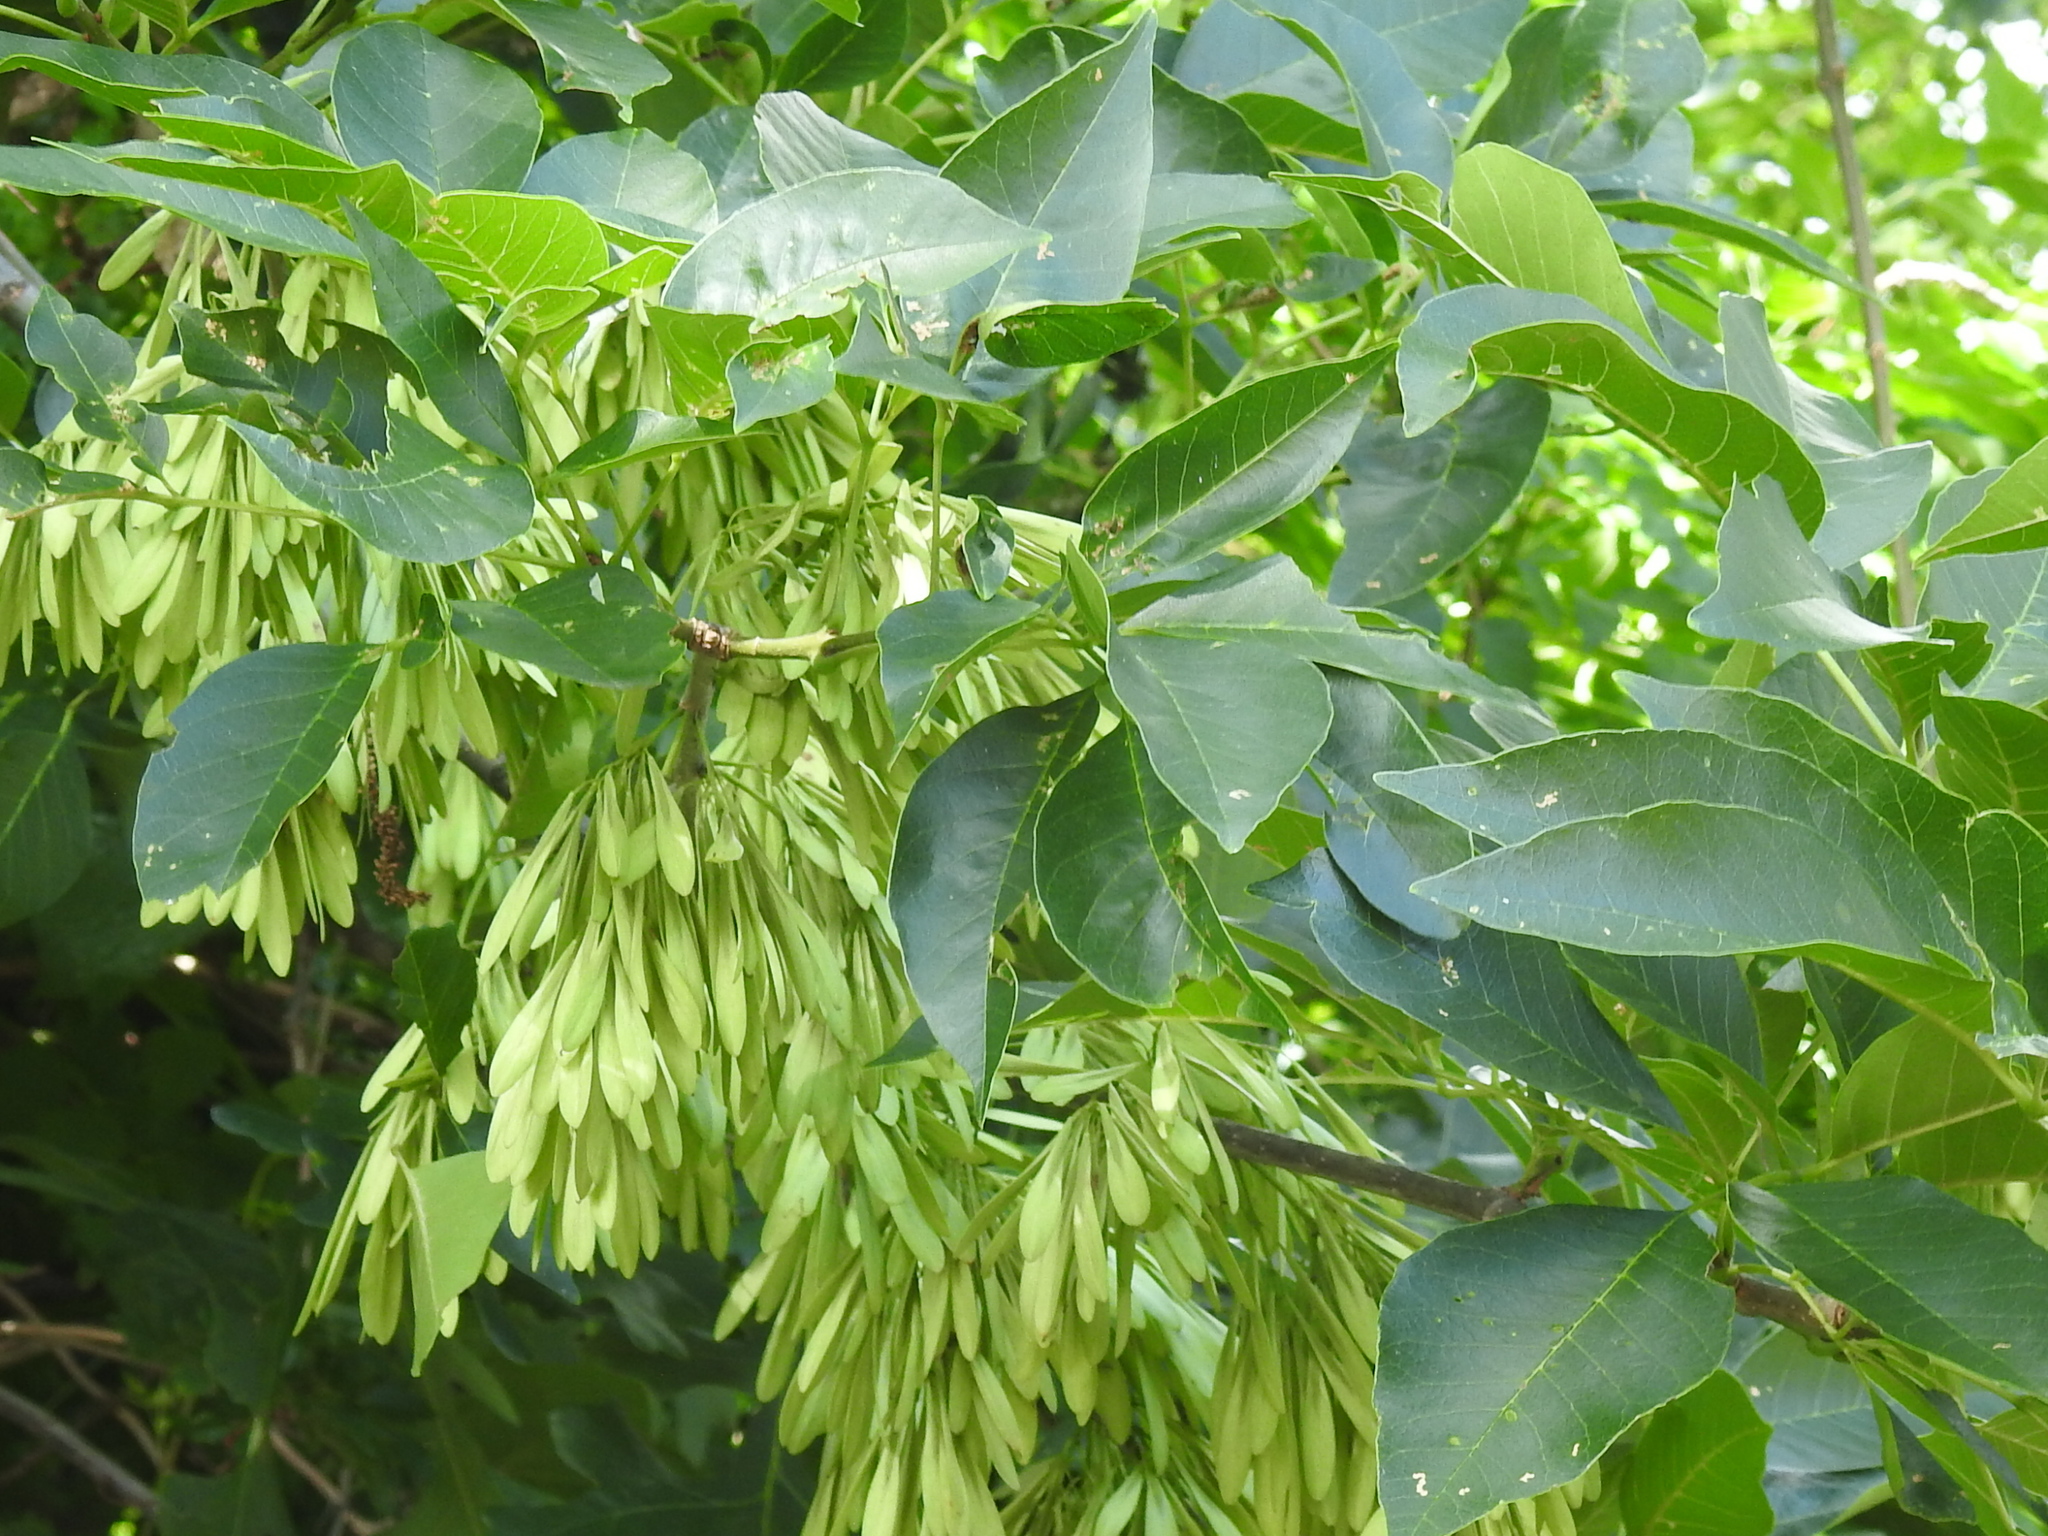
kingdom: Plantae
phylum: Tracheophyta
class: Magnoliopsida
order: Lamiales
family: Oleaceae
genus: Fraxinus
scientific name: Fraxinus pennsylvanica
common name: Green ash
